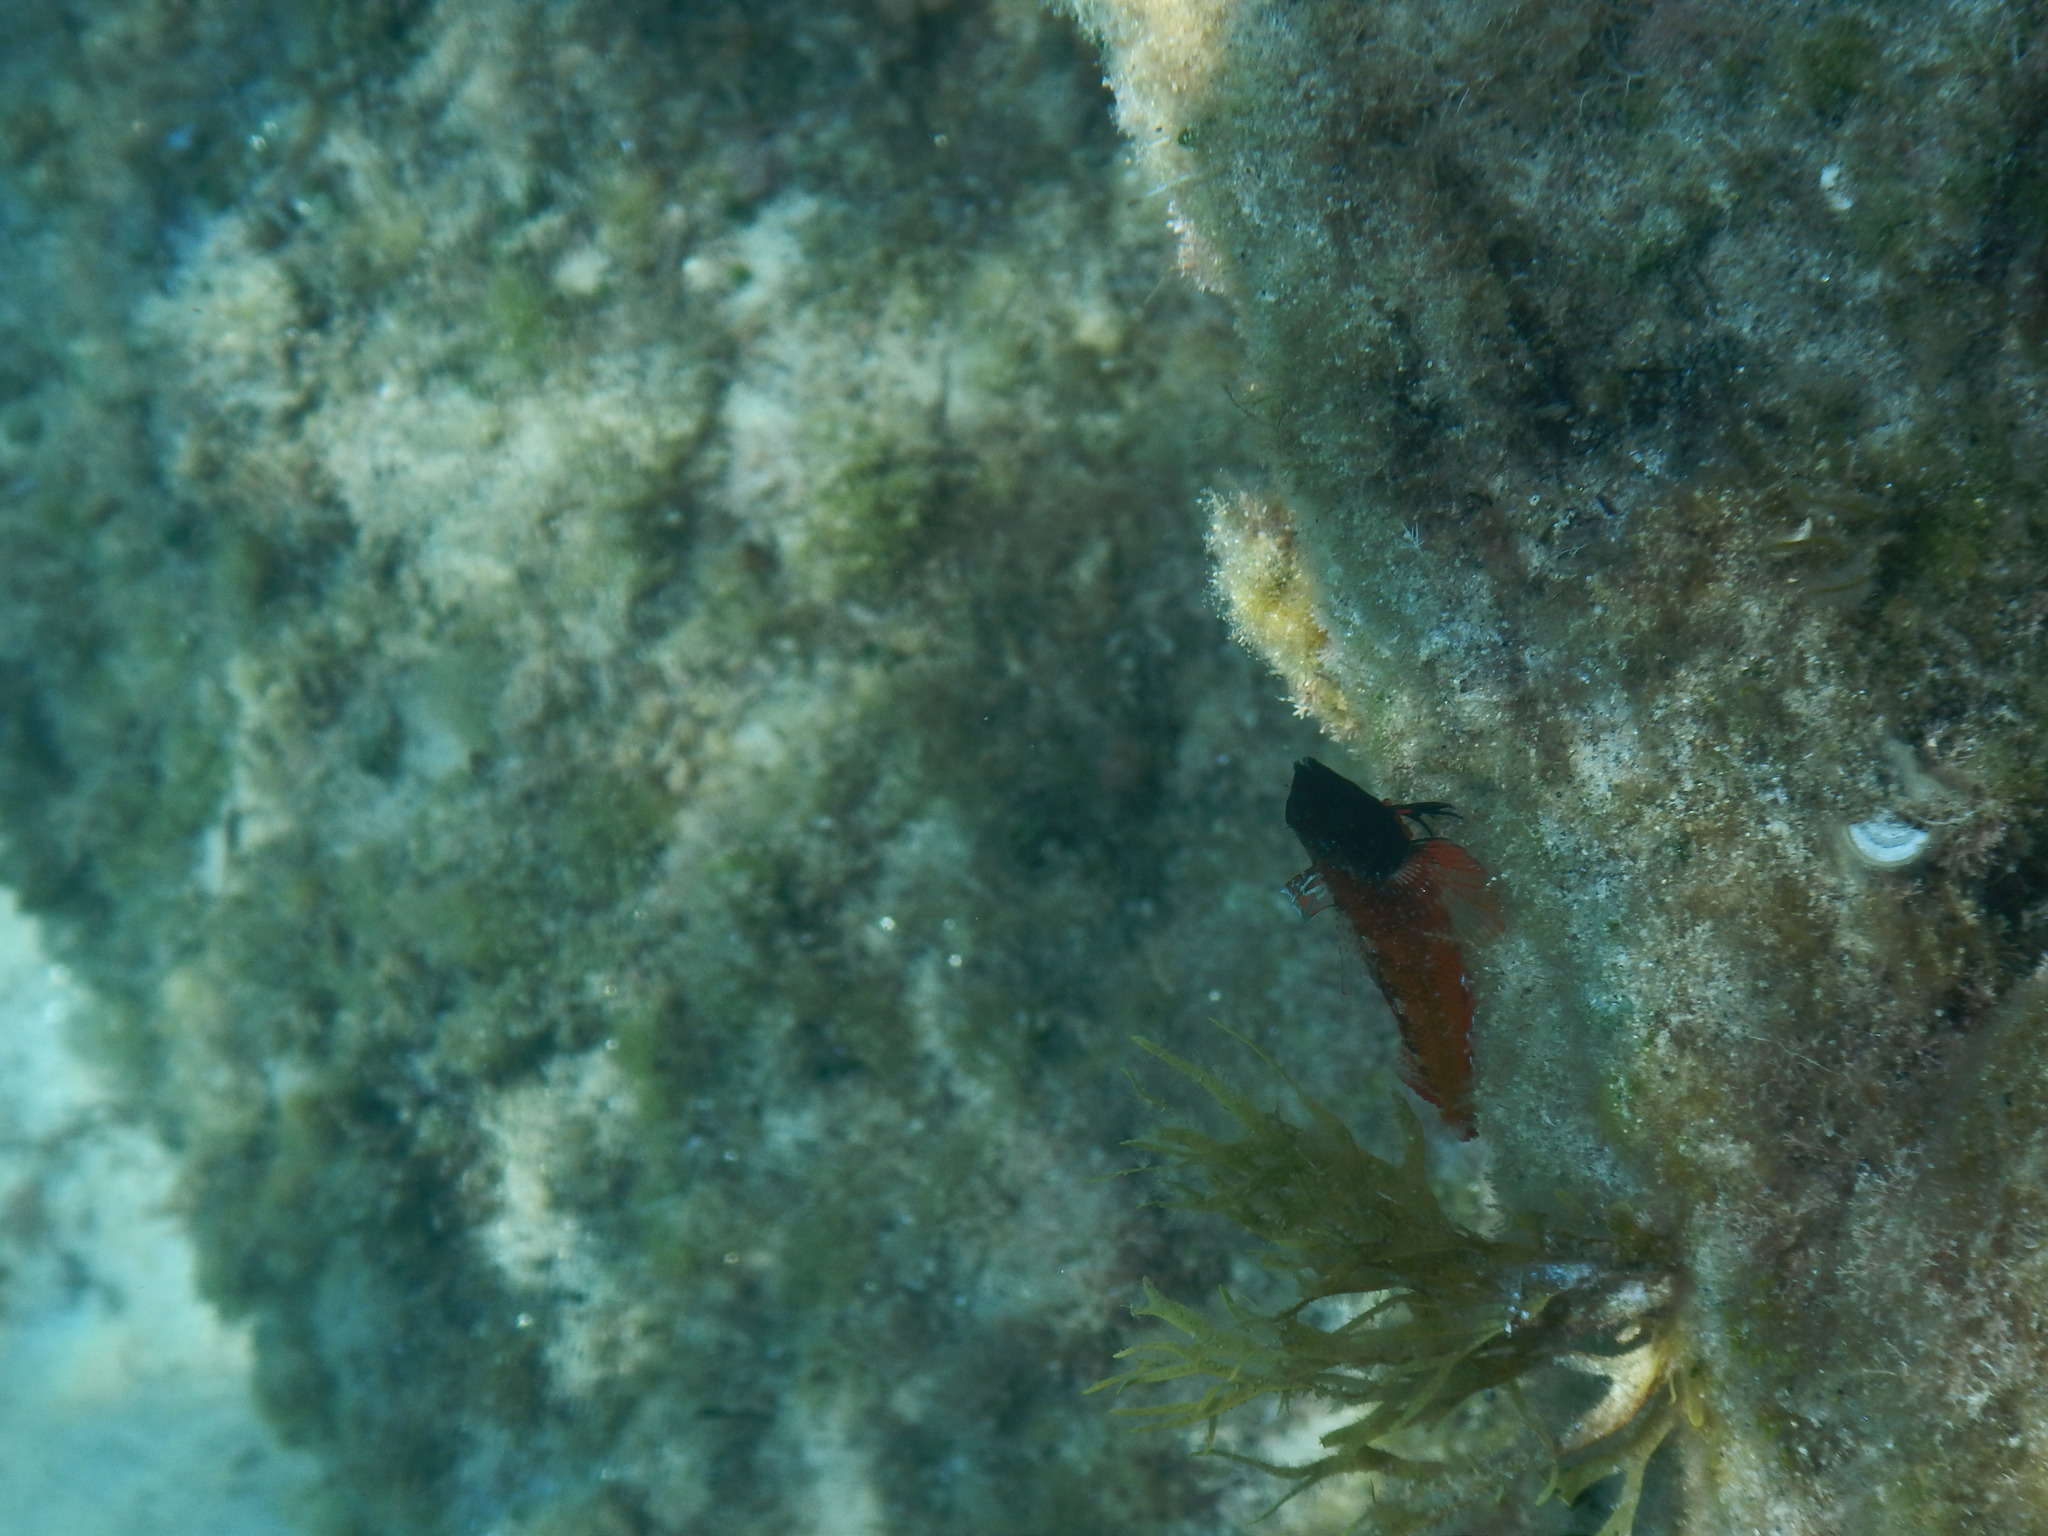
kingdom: Animalia
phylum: Chordata
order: Perciformes
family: Tripterygiidae
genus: Tripterygion
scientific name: Tripterygion tripteronotum
